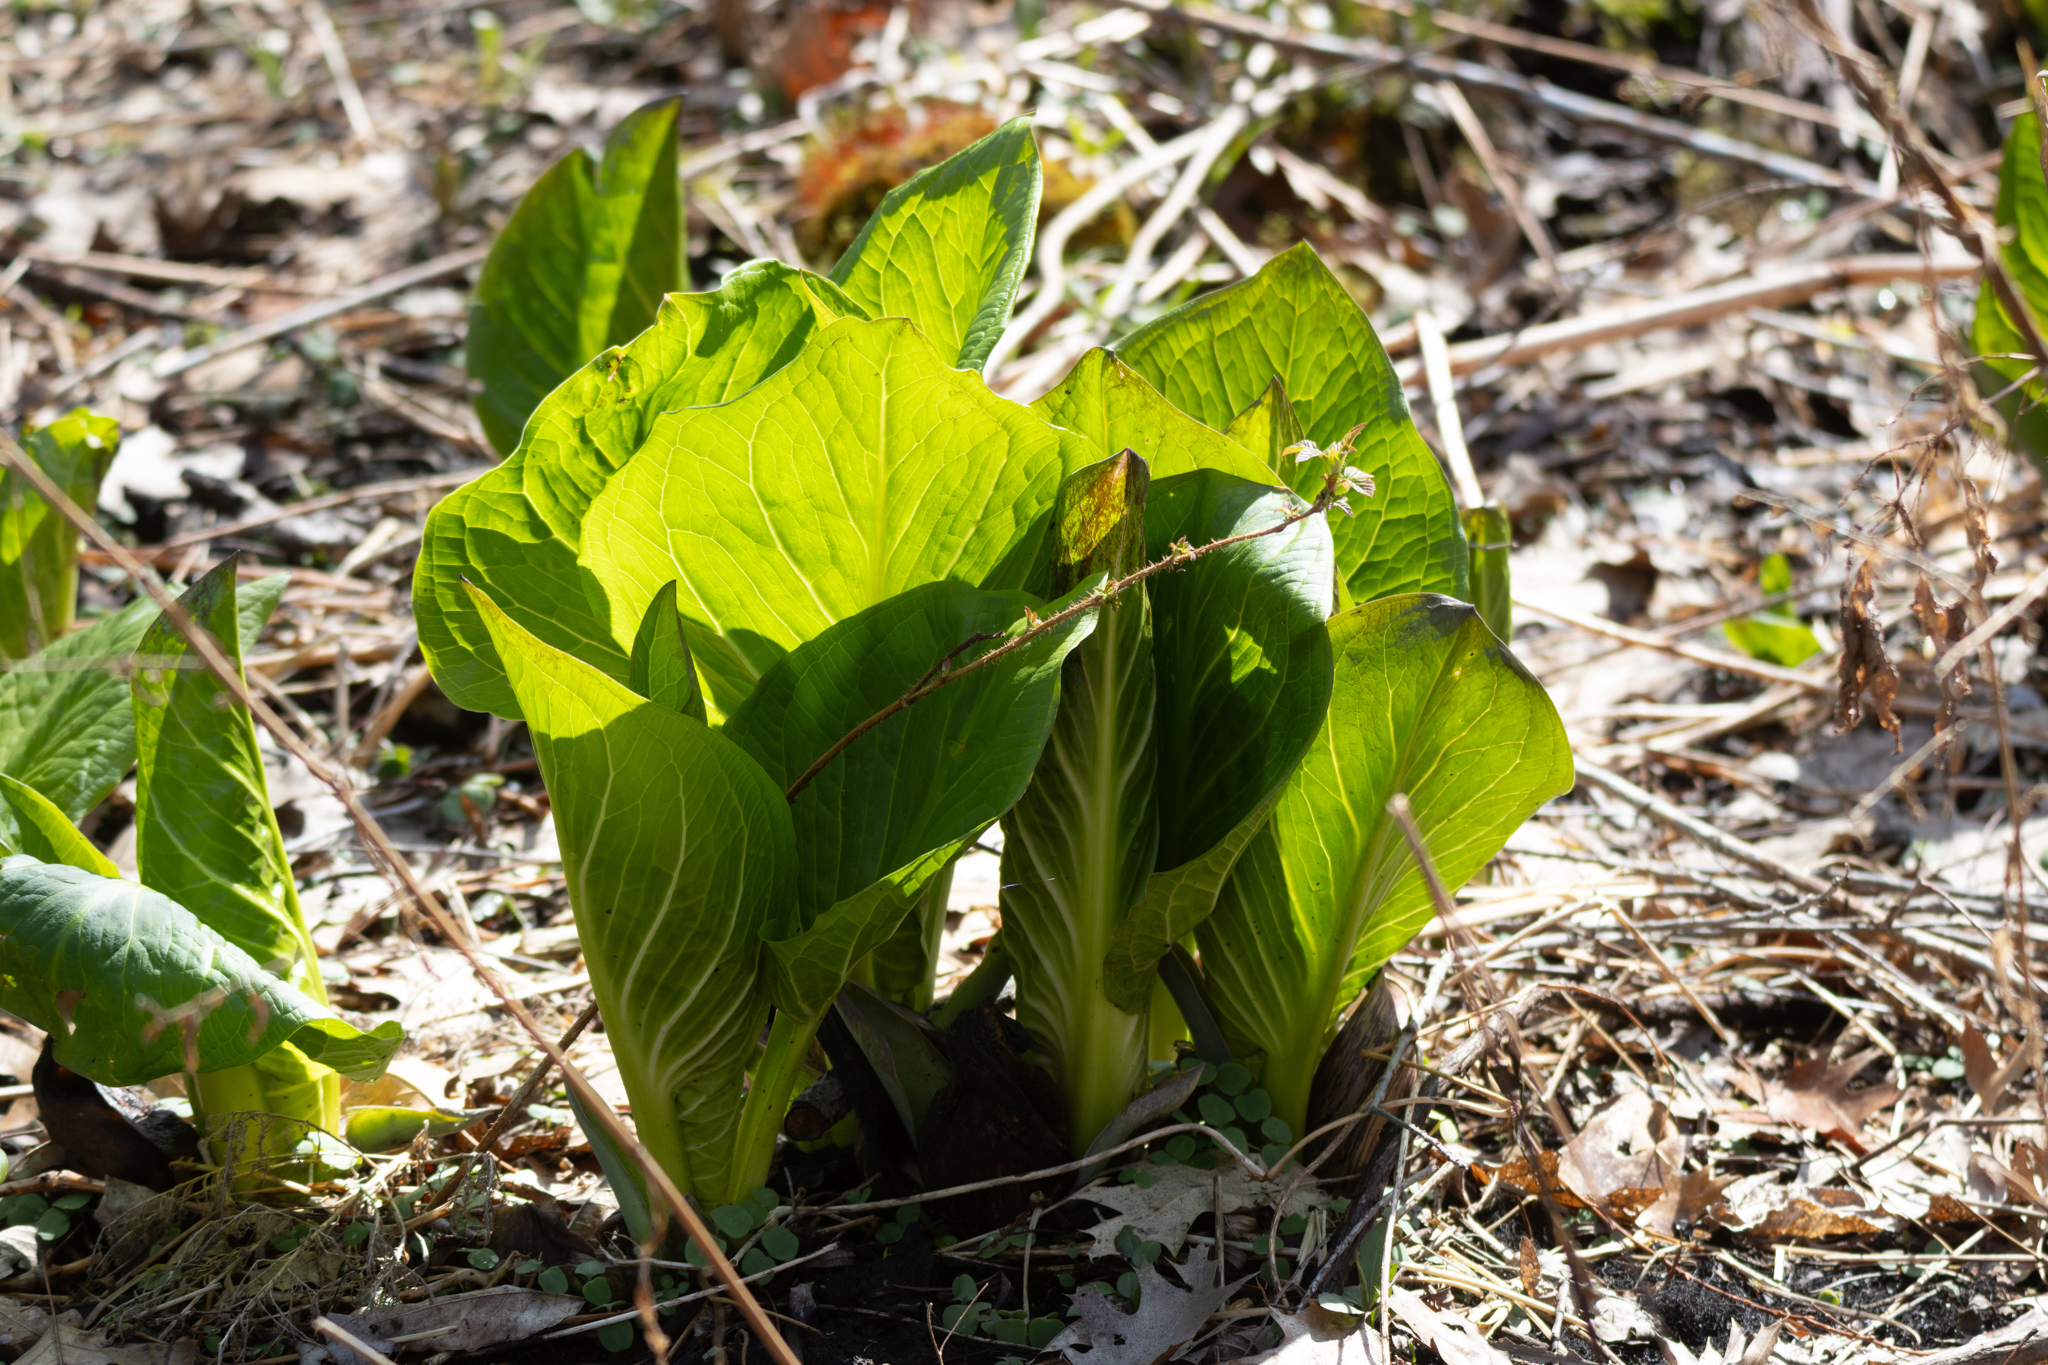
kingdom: Plantae
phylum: Tracheophyta
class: Liliopsida
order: Alismatales
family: Araceae
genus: Symplocarpus
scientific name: Symplocarpus foetidus
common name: Eastern skunk cabbage
